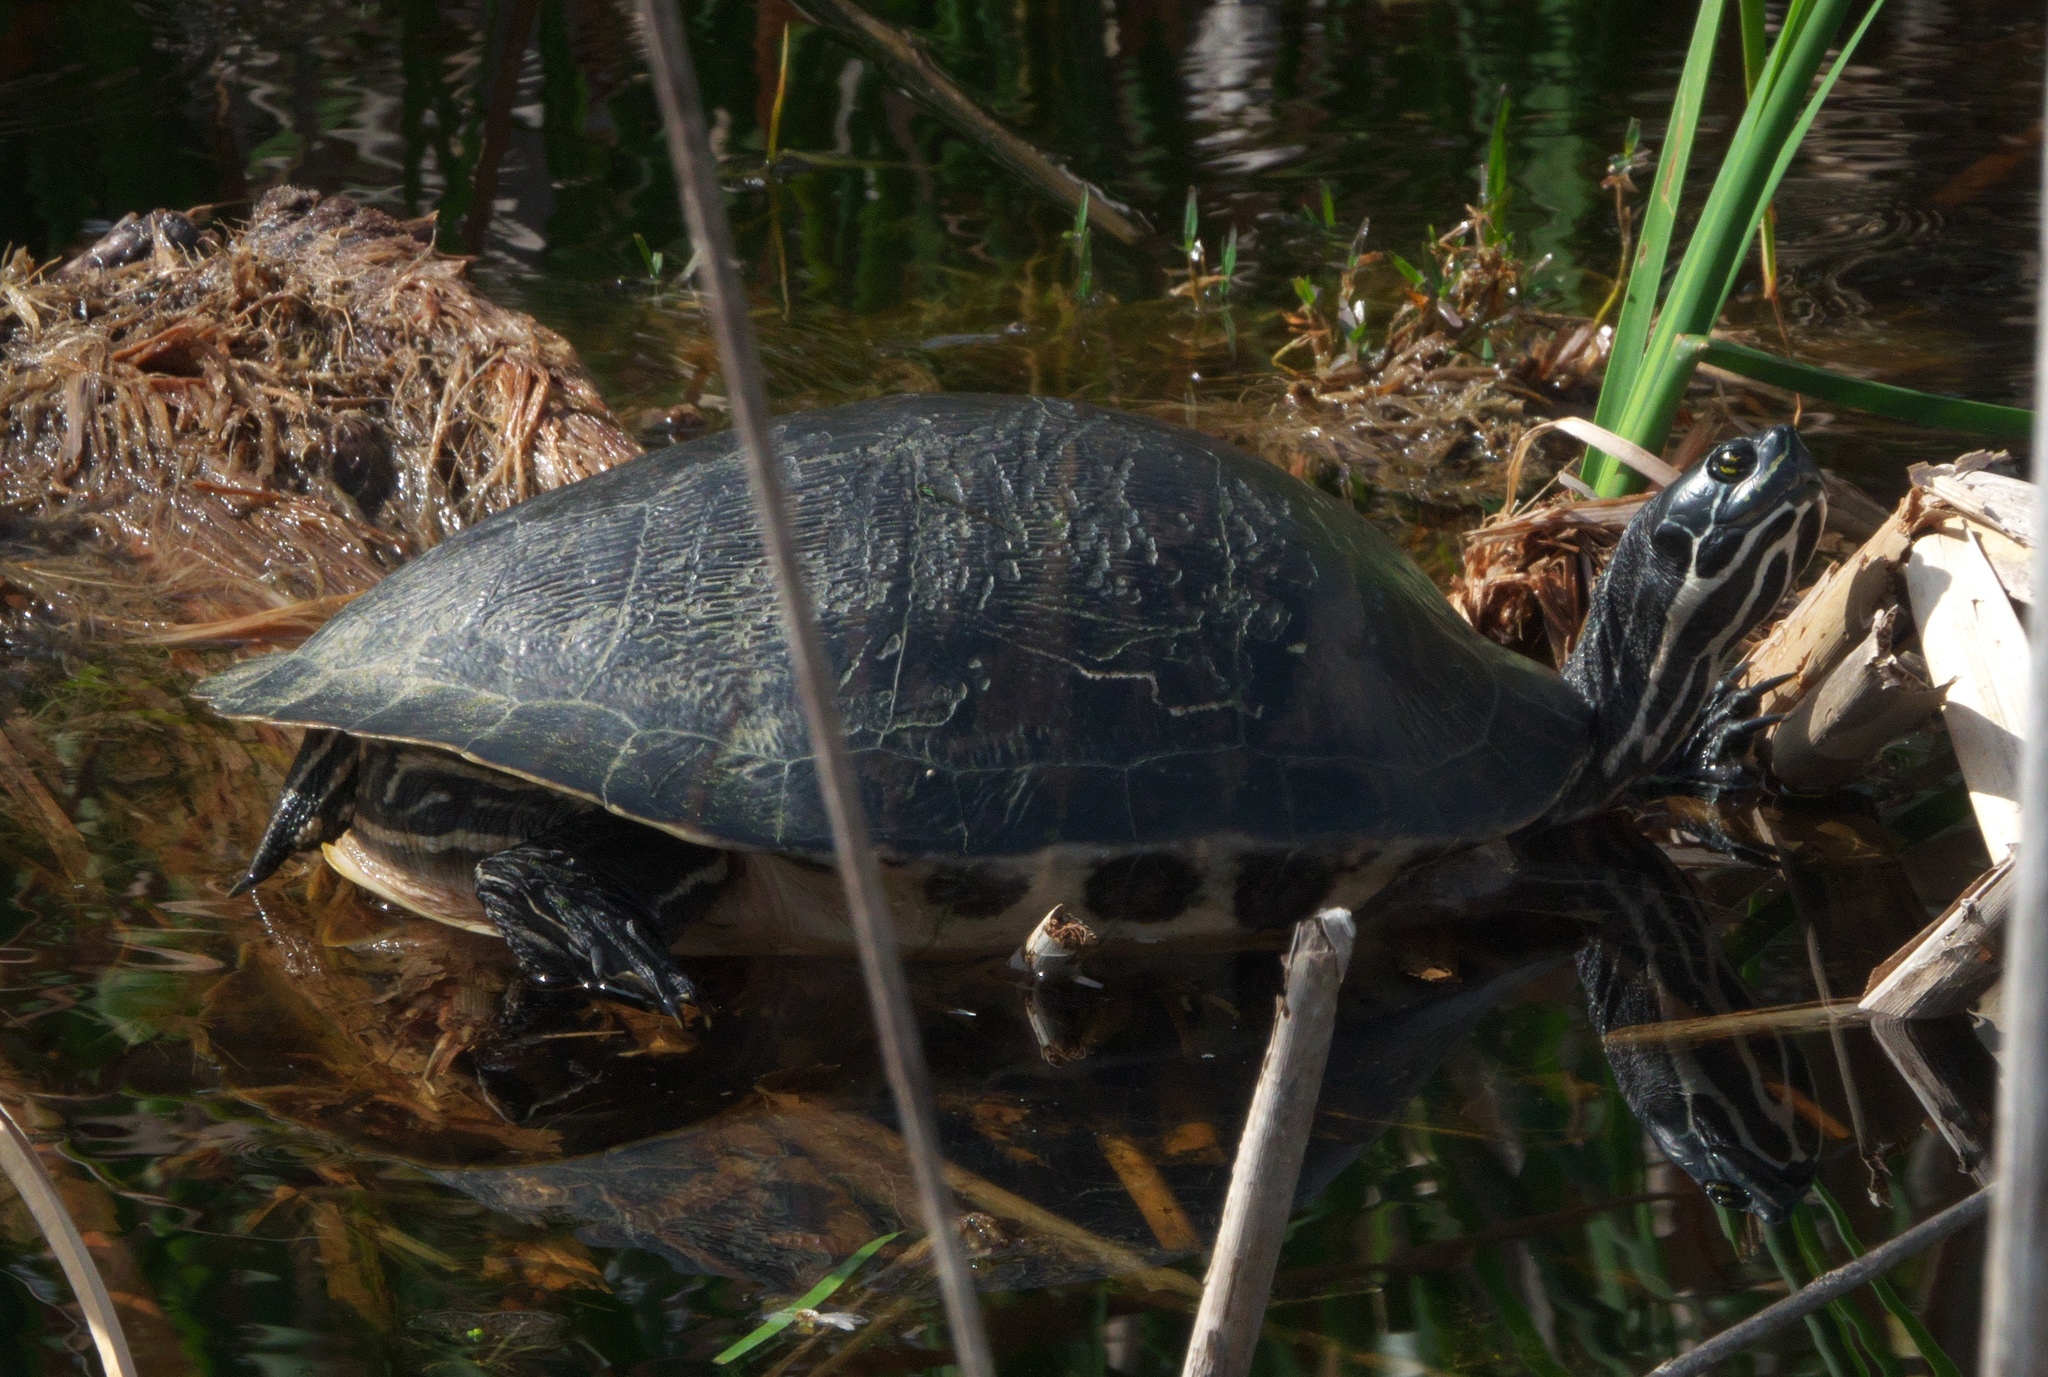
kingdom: Animalia
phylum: Chordata
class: Testudines
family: Emydidae
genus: Pseudemys
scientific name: Pseudemys nelsoni
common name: Florida red-bellied turtle
